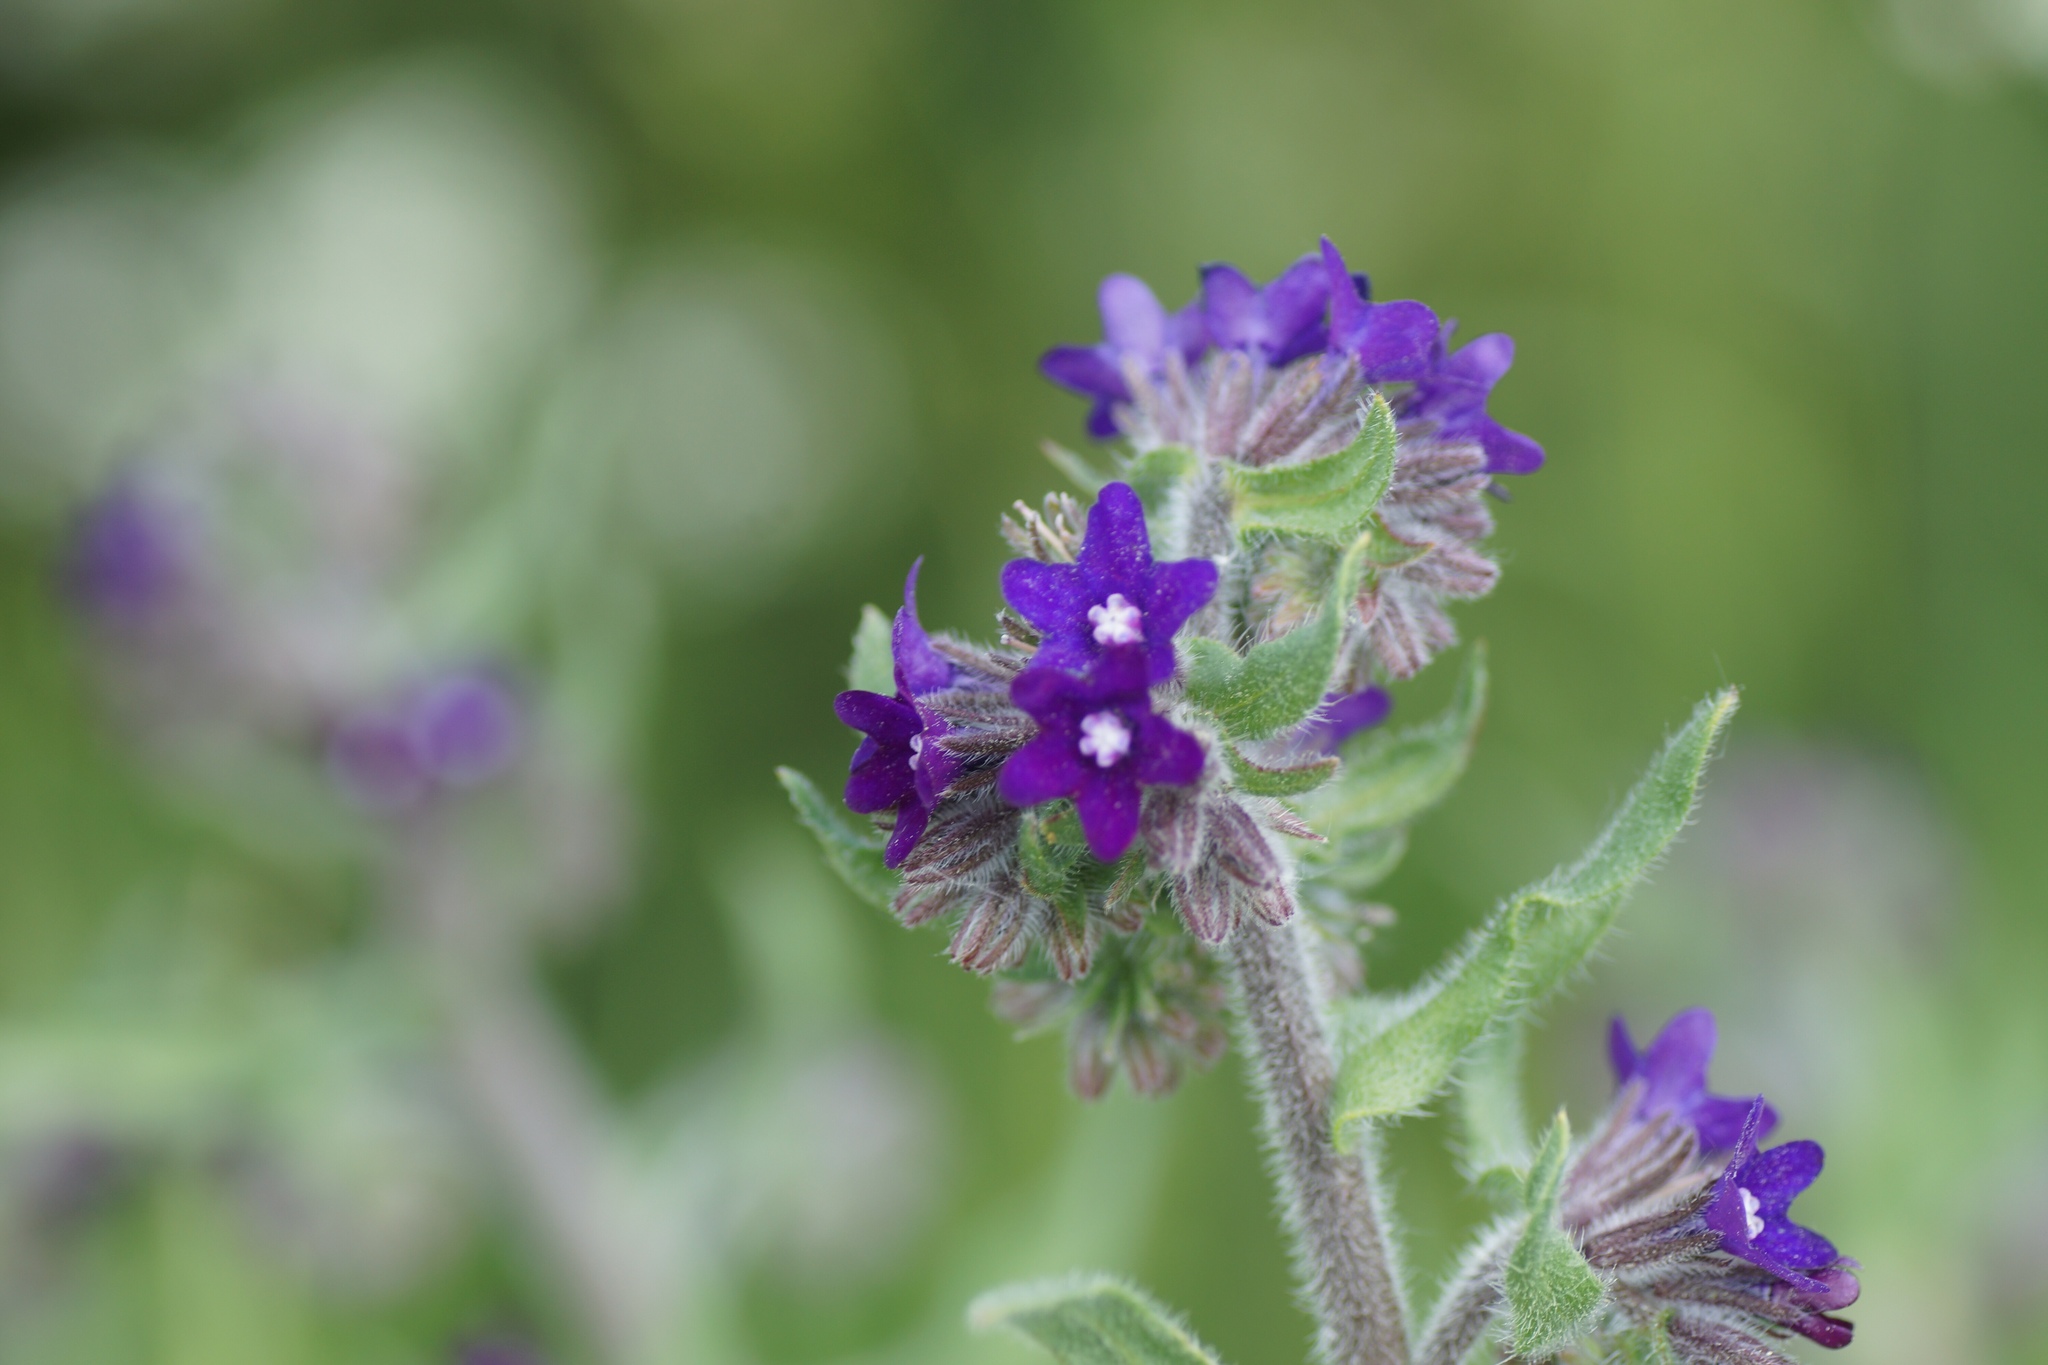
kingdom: Plantae
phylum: Tracheophyta
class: Magnoliopsida
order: Boraginales
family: Boraginaceae
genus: Anchusa
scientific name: Anchusa officinalis
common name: Alkanet
